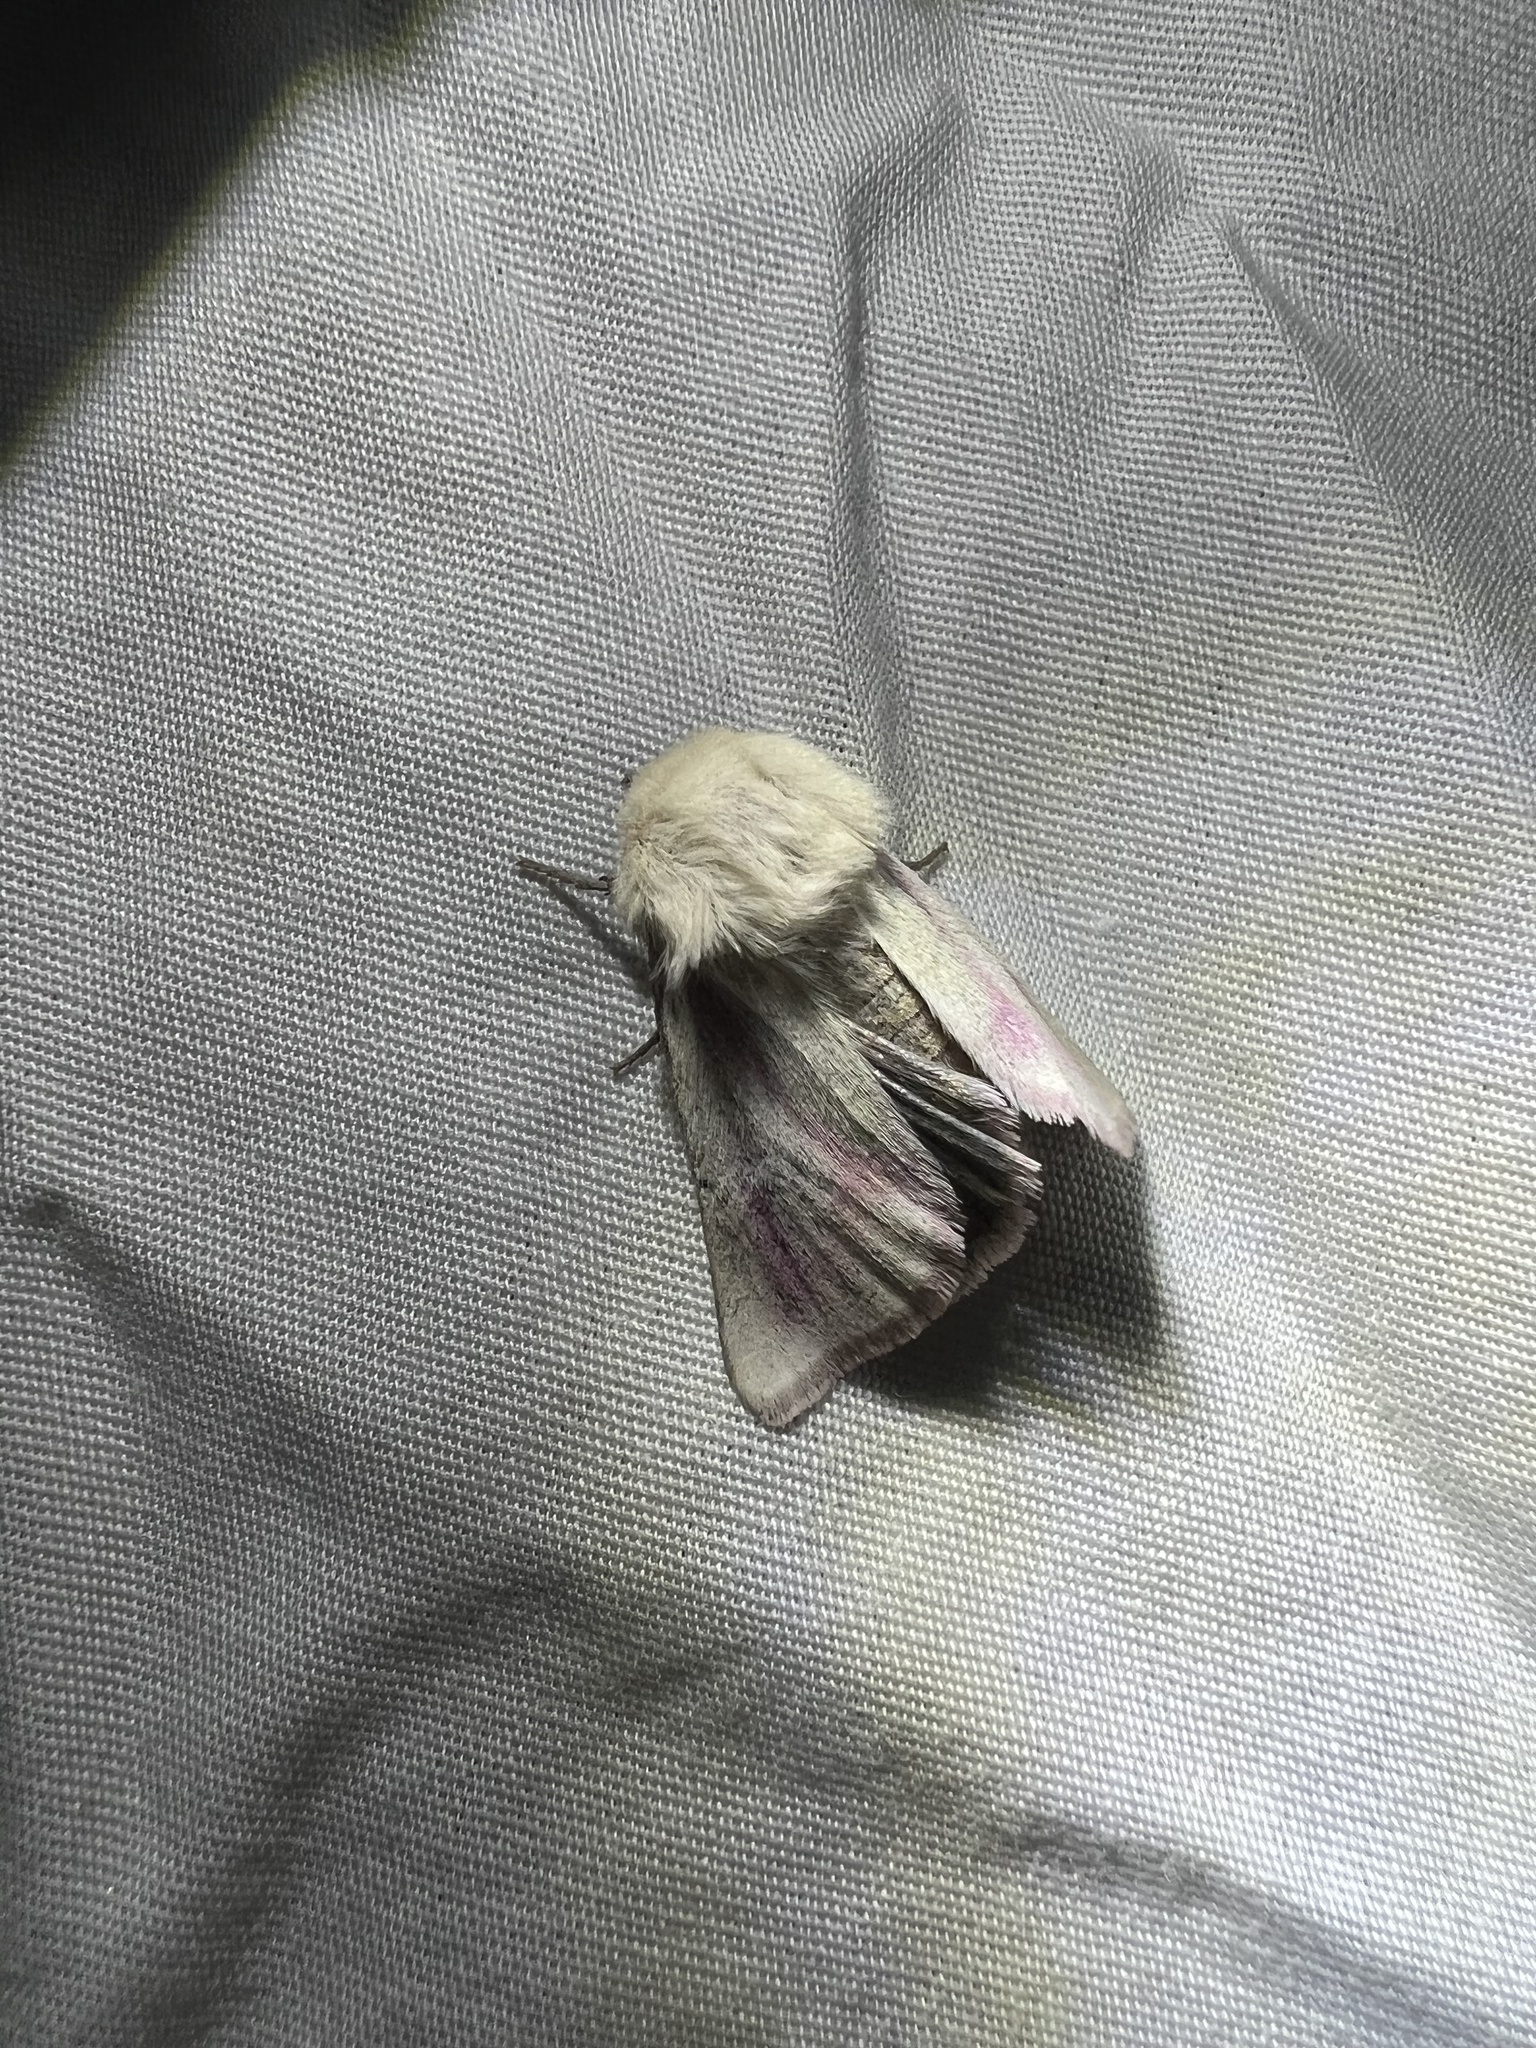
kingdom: Animalia
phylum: Arthropoda
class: Insecta
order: Lepidoptera
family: Noctuidae
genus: Schinia
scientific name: Schinia snowi
